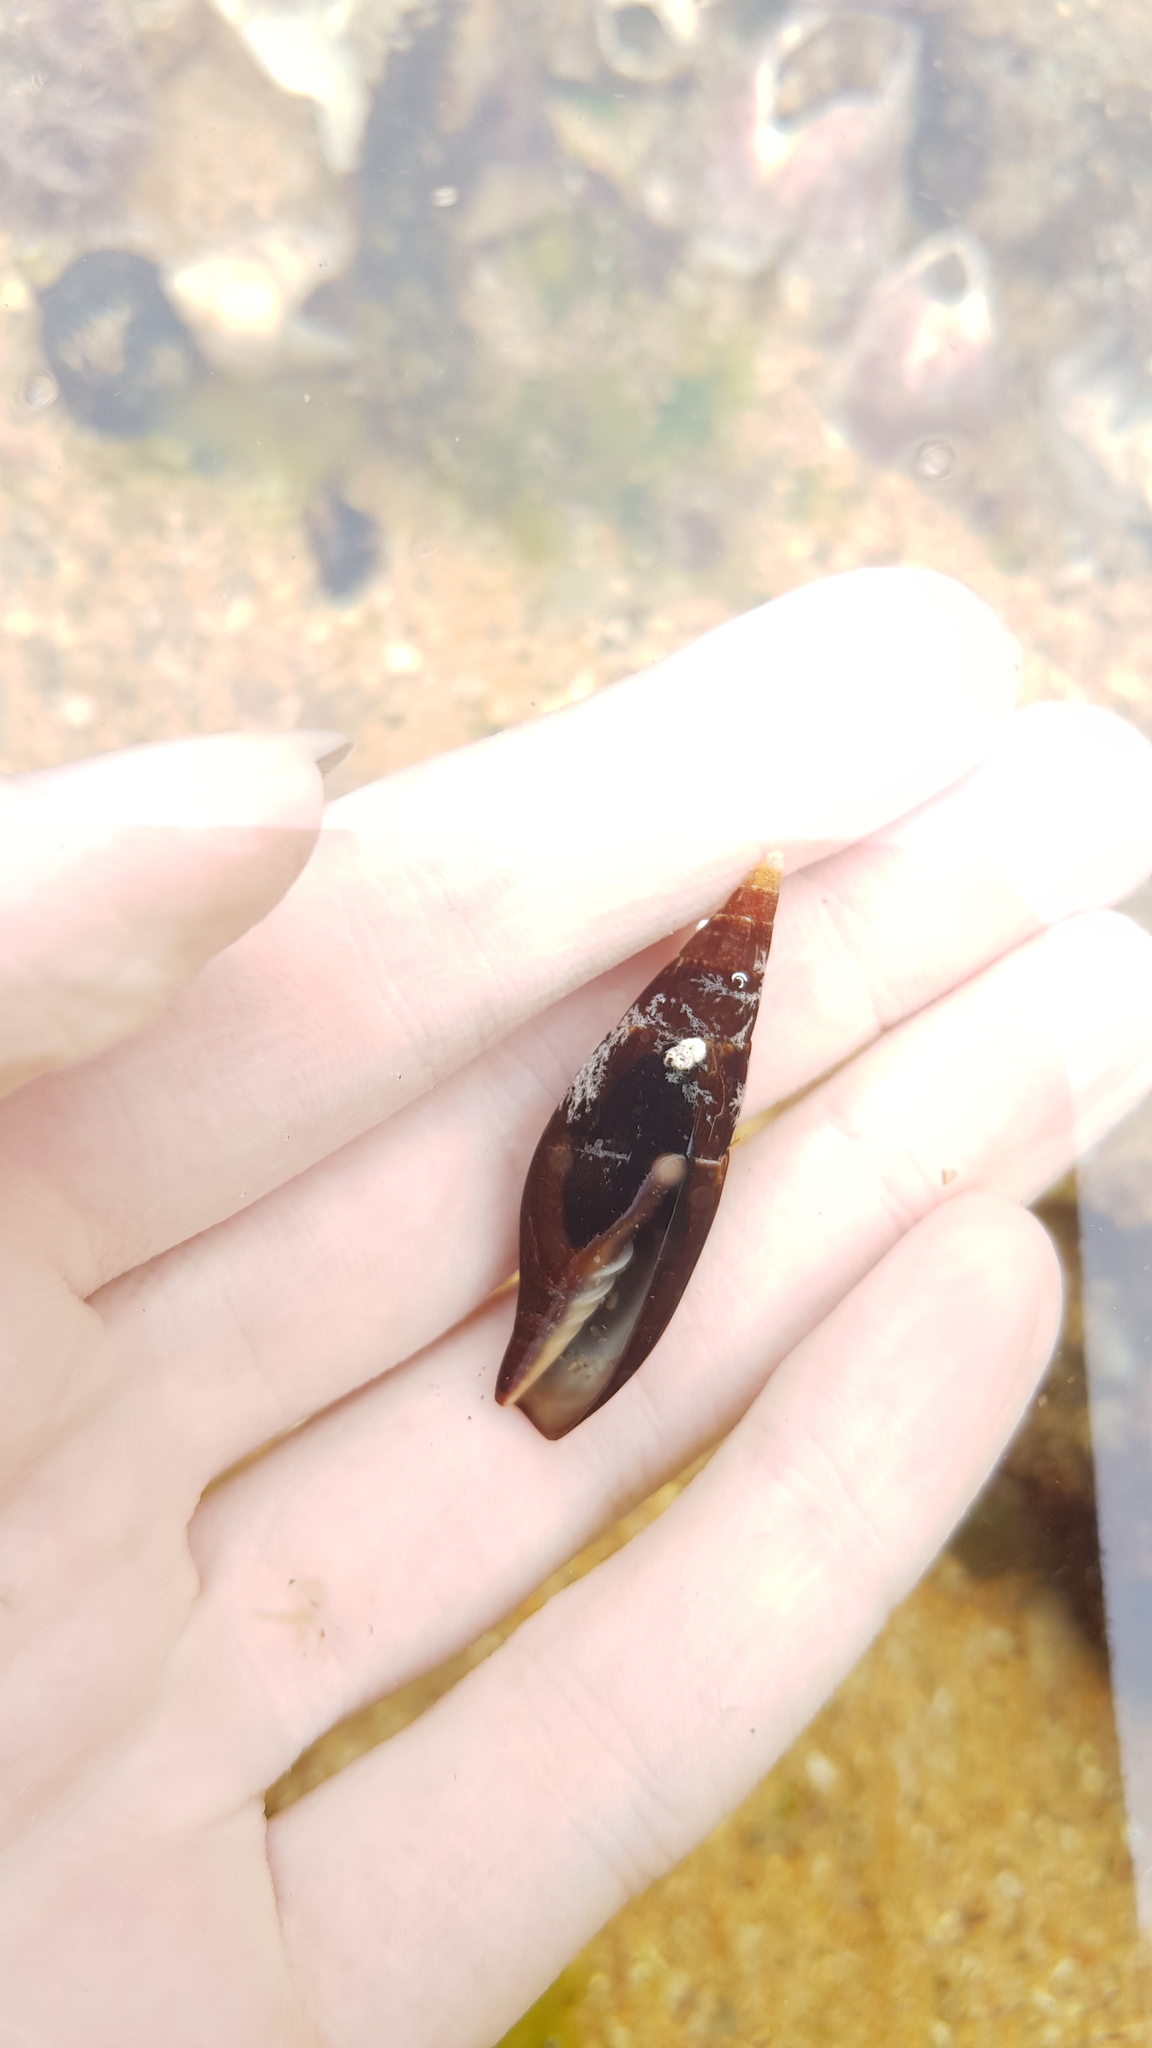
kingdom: Animalia
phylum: Mollusca
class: Gastropoda
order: Neogastropoda
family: Mitridae
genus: Isara
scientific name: Isara carbonaria
